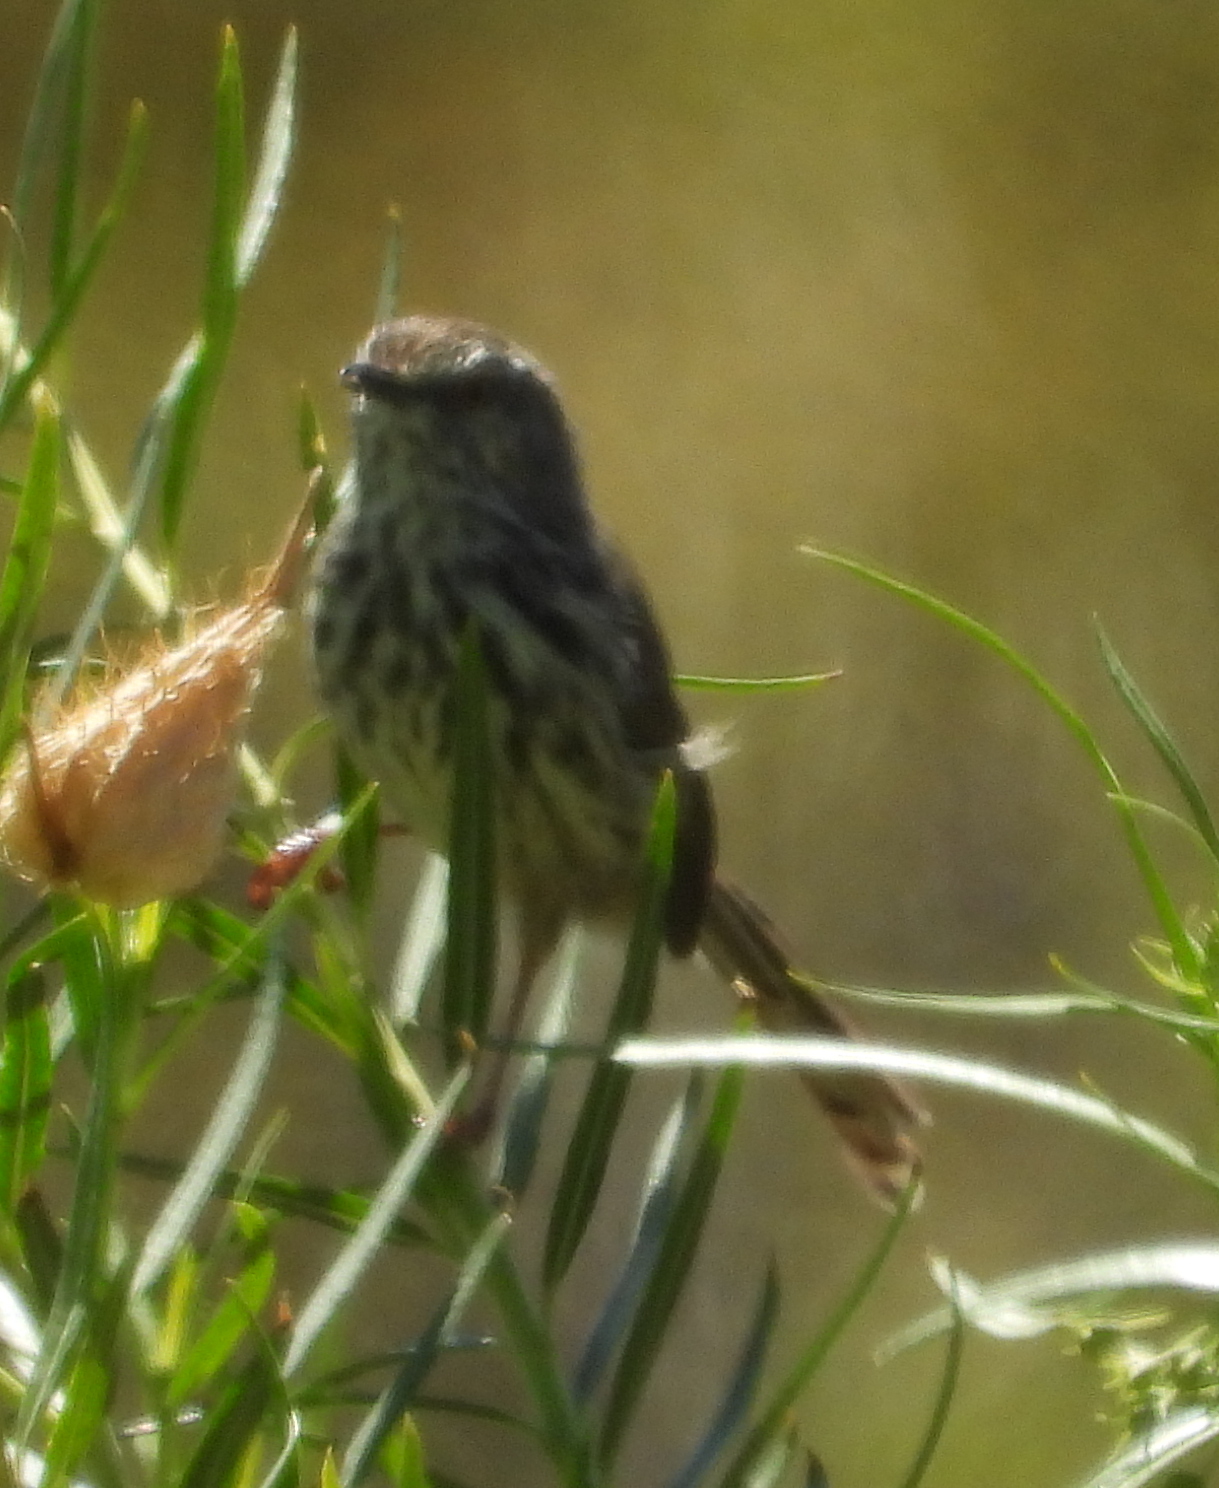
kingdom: Animalia
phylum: Chordata
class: Aves
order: Passeriformes
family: Cisticolidae
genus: Prinia
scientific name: Prinia maculosa
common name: Karoo prinia
